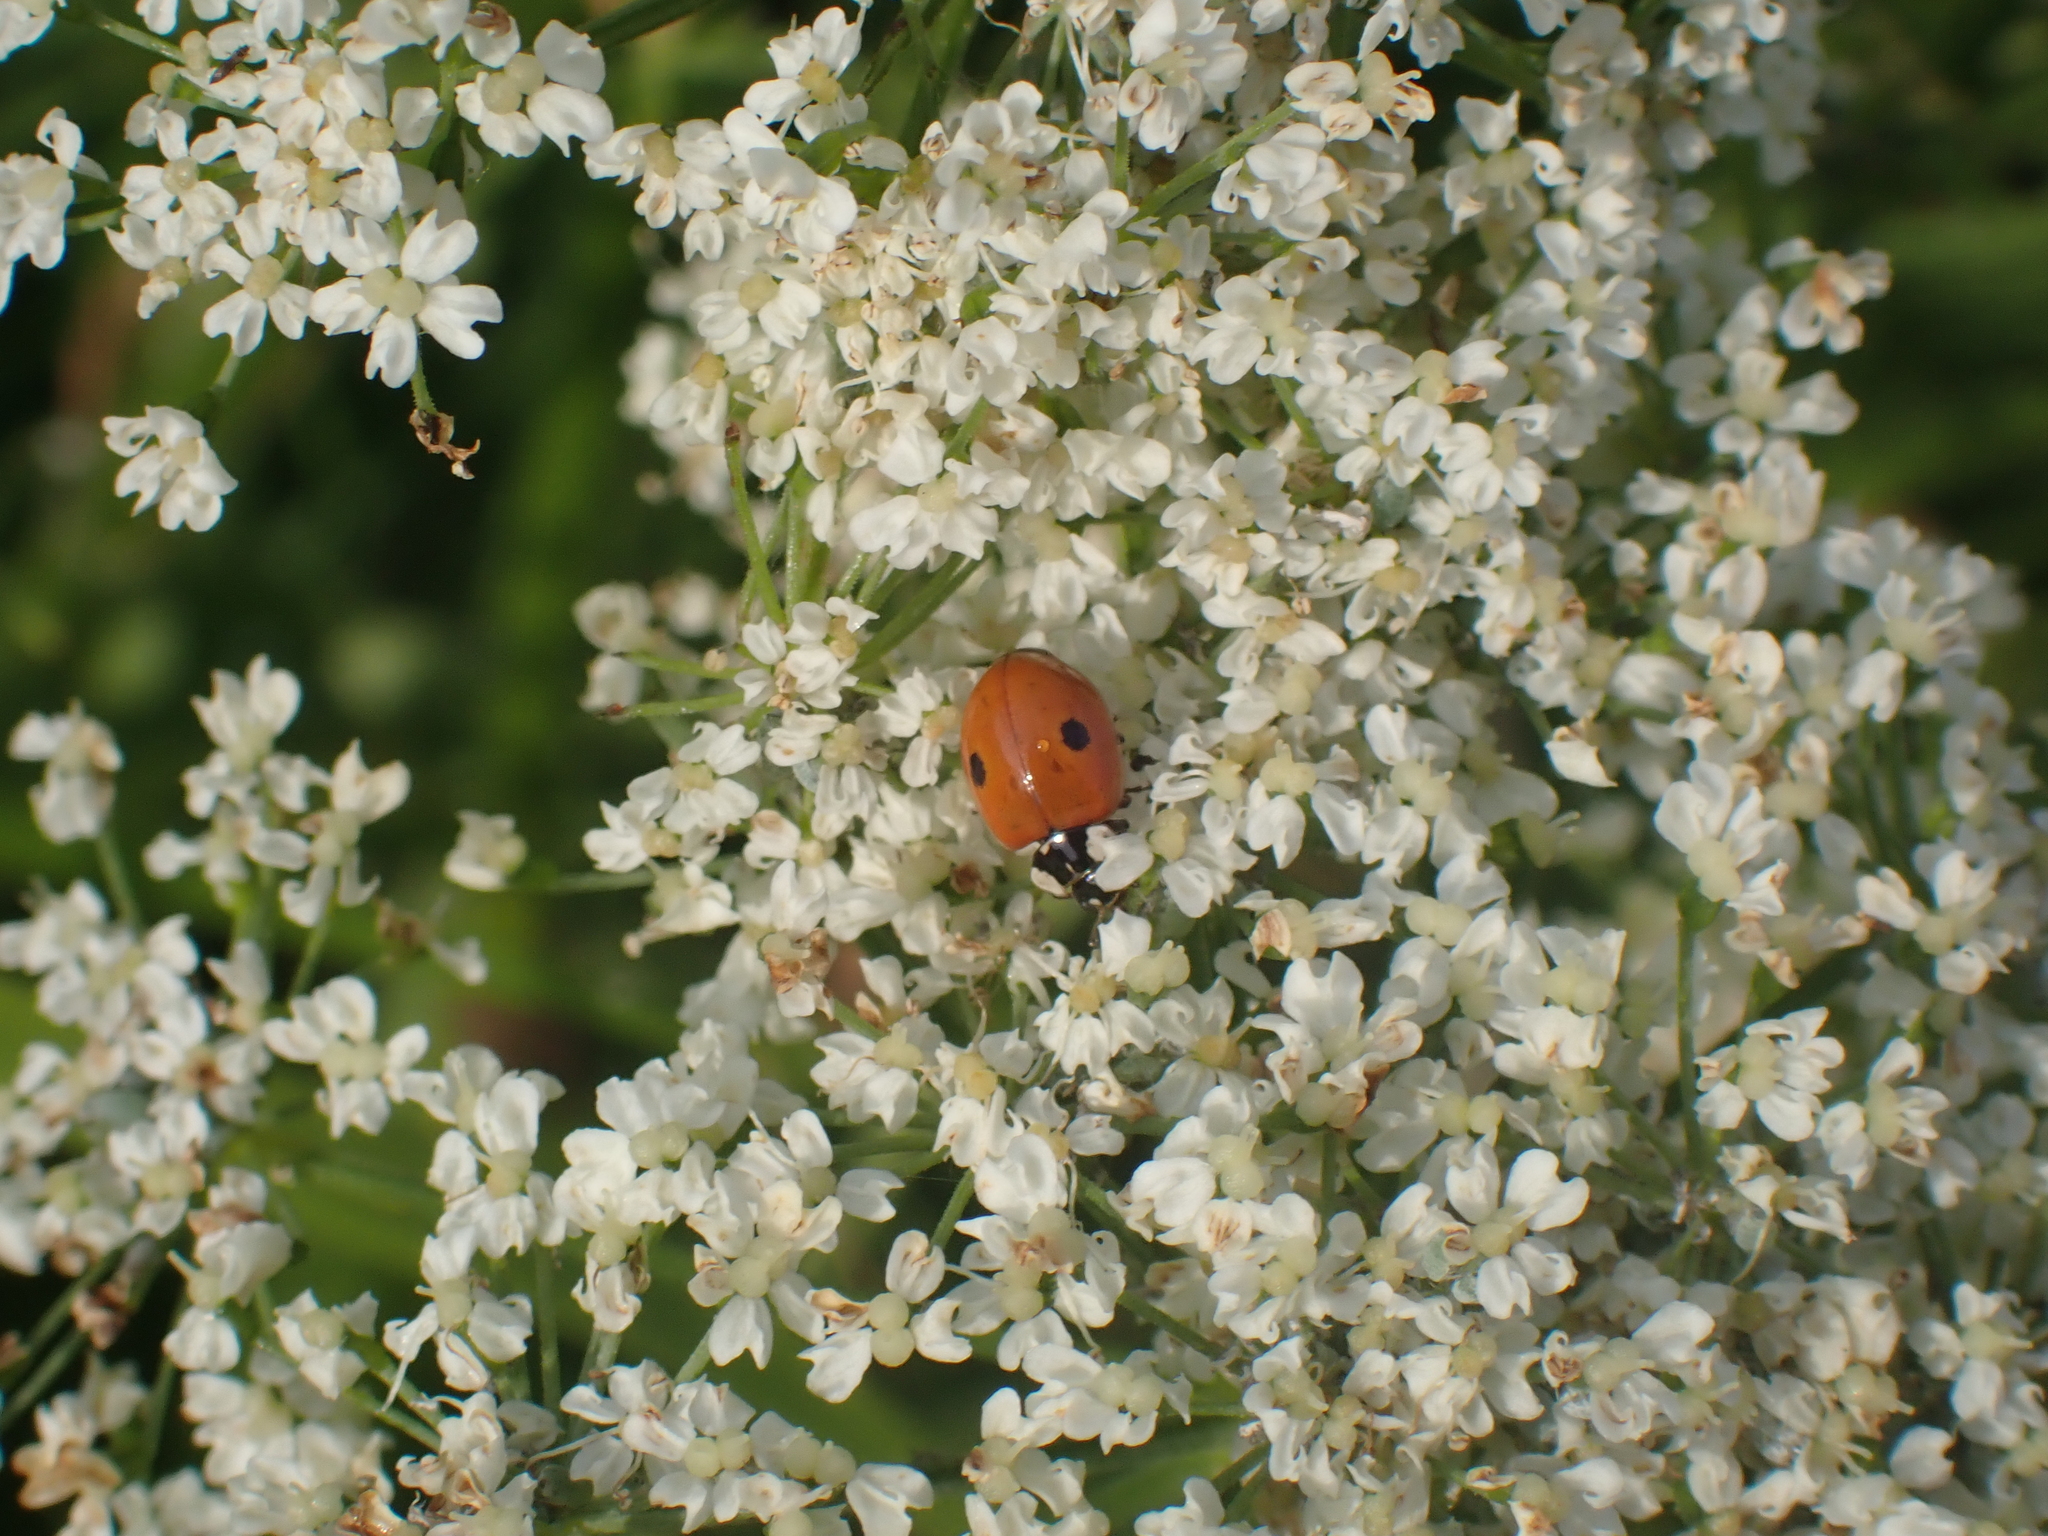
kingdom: Animalia
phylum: Arthropoda
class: Insecta
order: Coleoptera
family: Coccinellidae
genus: Adalia
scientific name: Adalia bipunctata
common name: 2-spot ladybird
